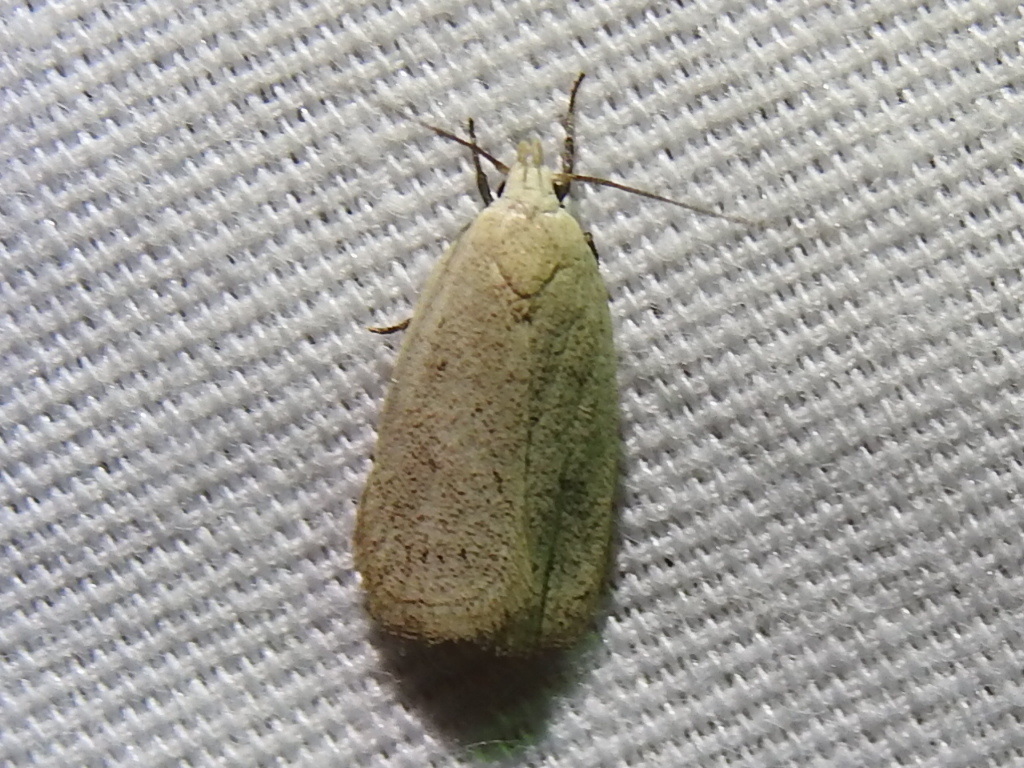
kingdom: Animalia
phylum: Arthropoda
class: Insecta
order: Lepidoptera
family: Oecophoridae
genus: Inga
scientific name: Inga cretacea
